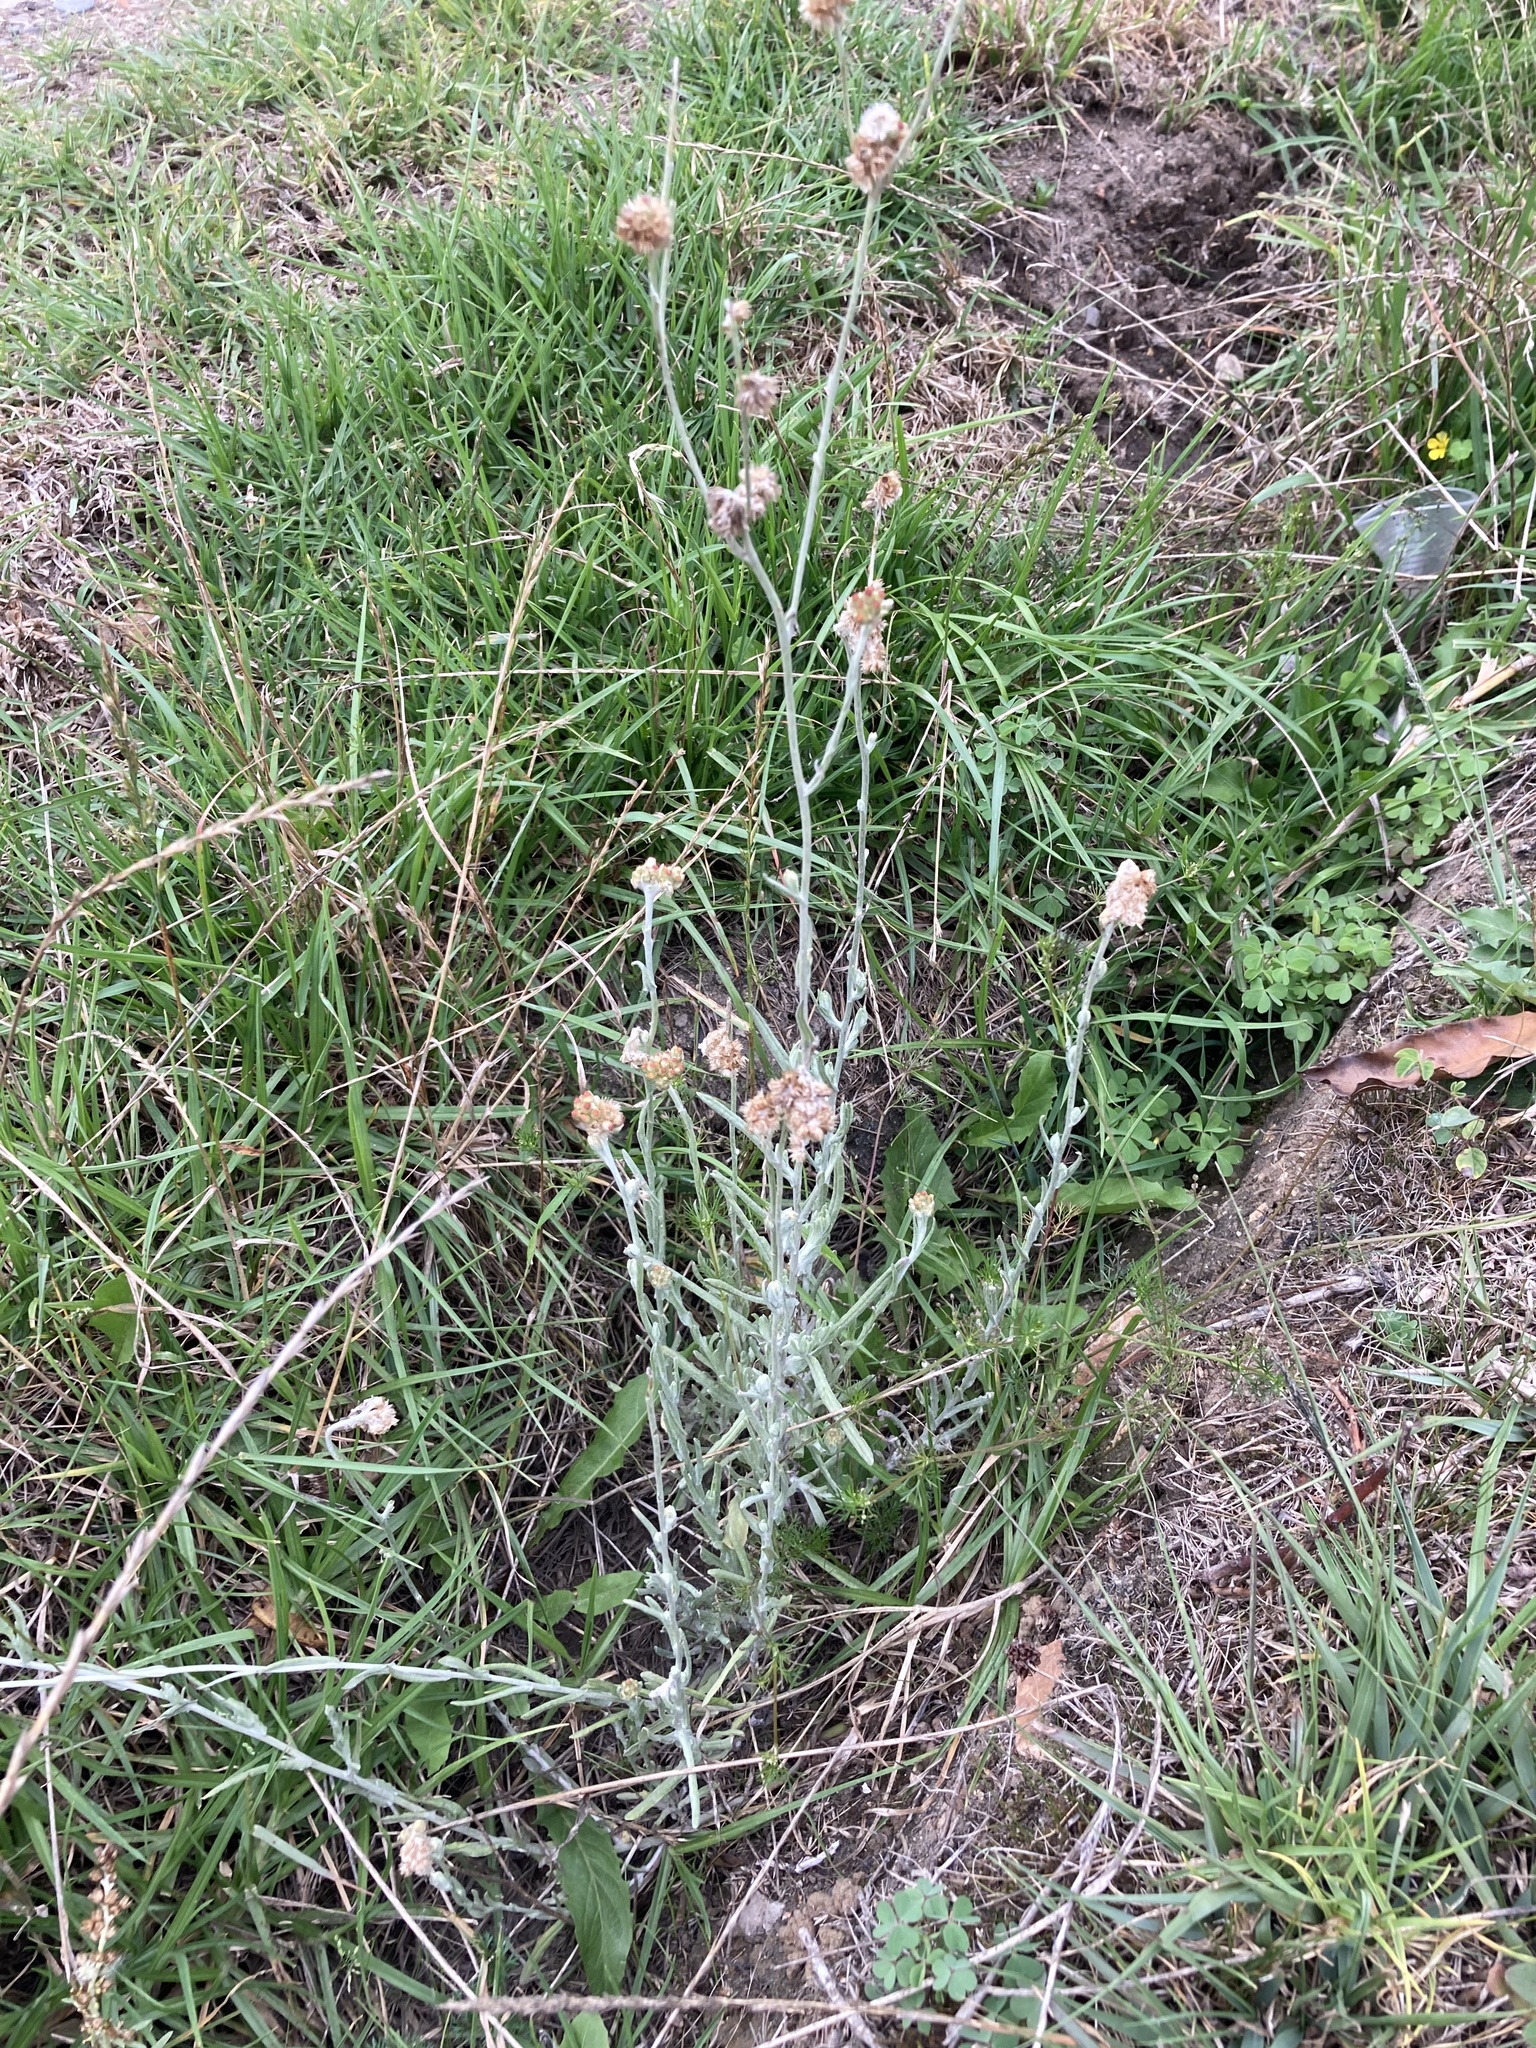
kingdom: Plantae
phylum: Tracheophyta
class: Magnoliopsida
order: Asterales
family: Asteraceae
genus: Helichrysum
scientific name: Helichrysum luteoalbum
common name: Daisy
